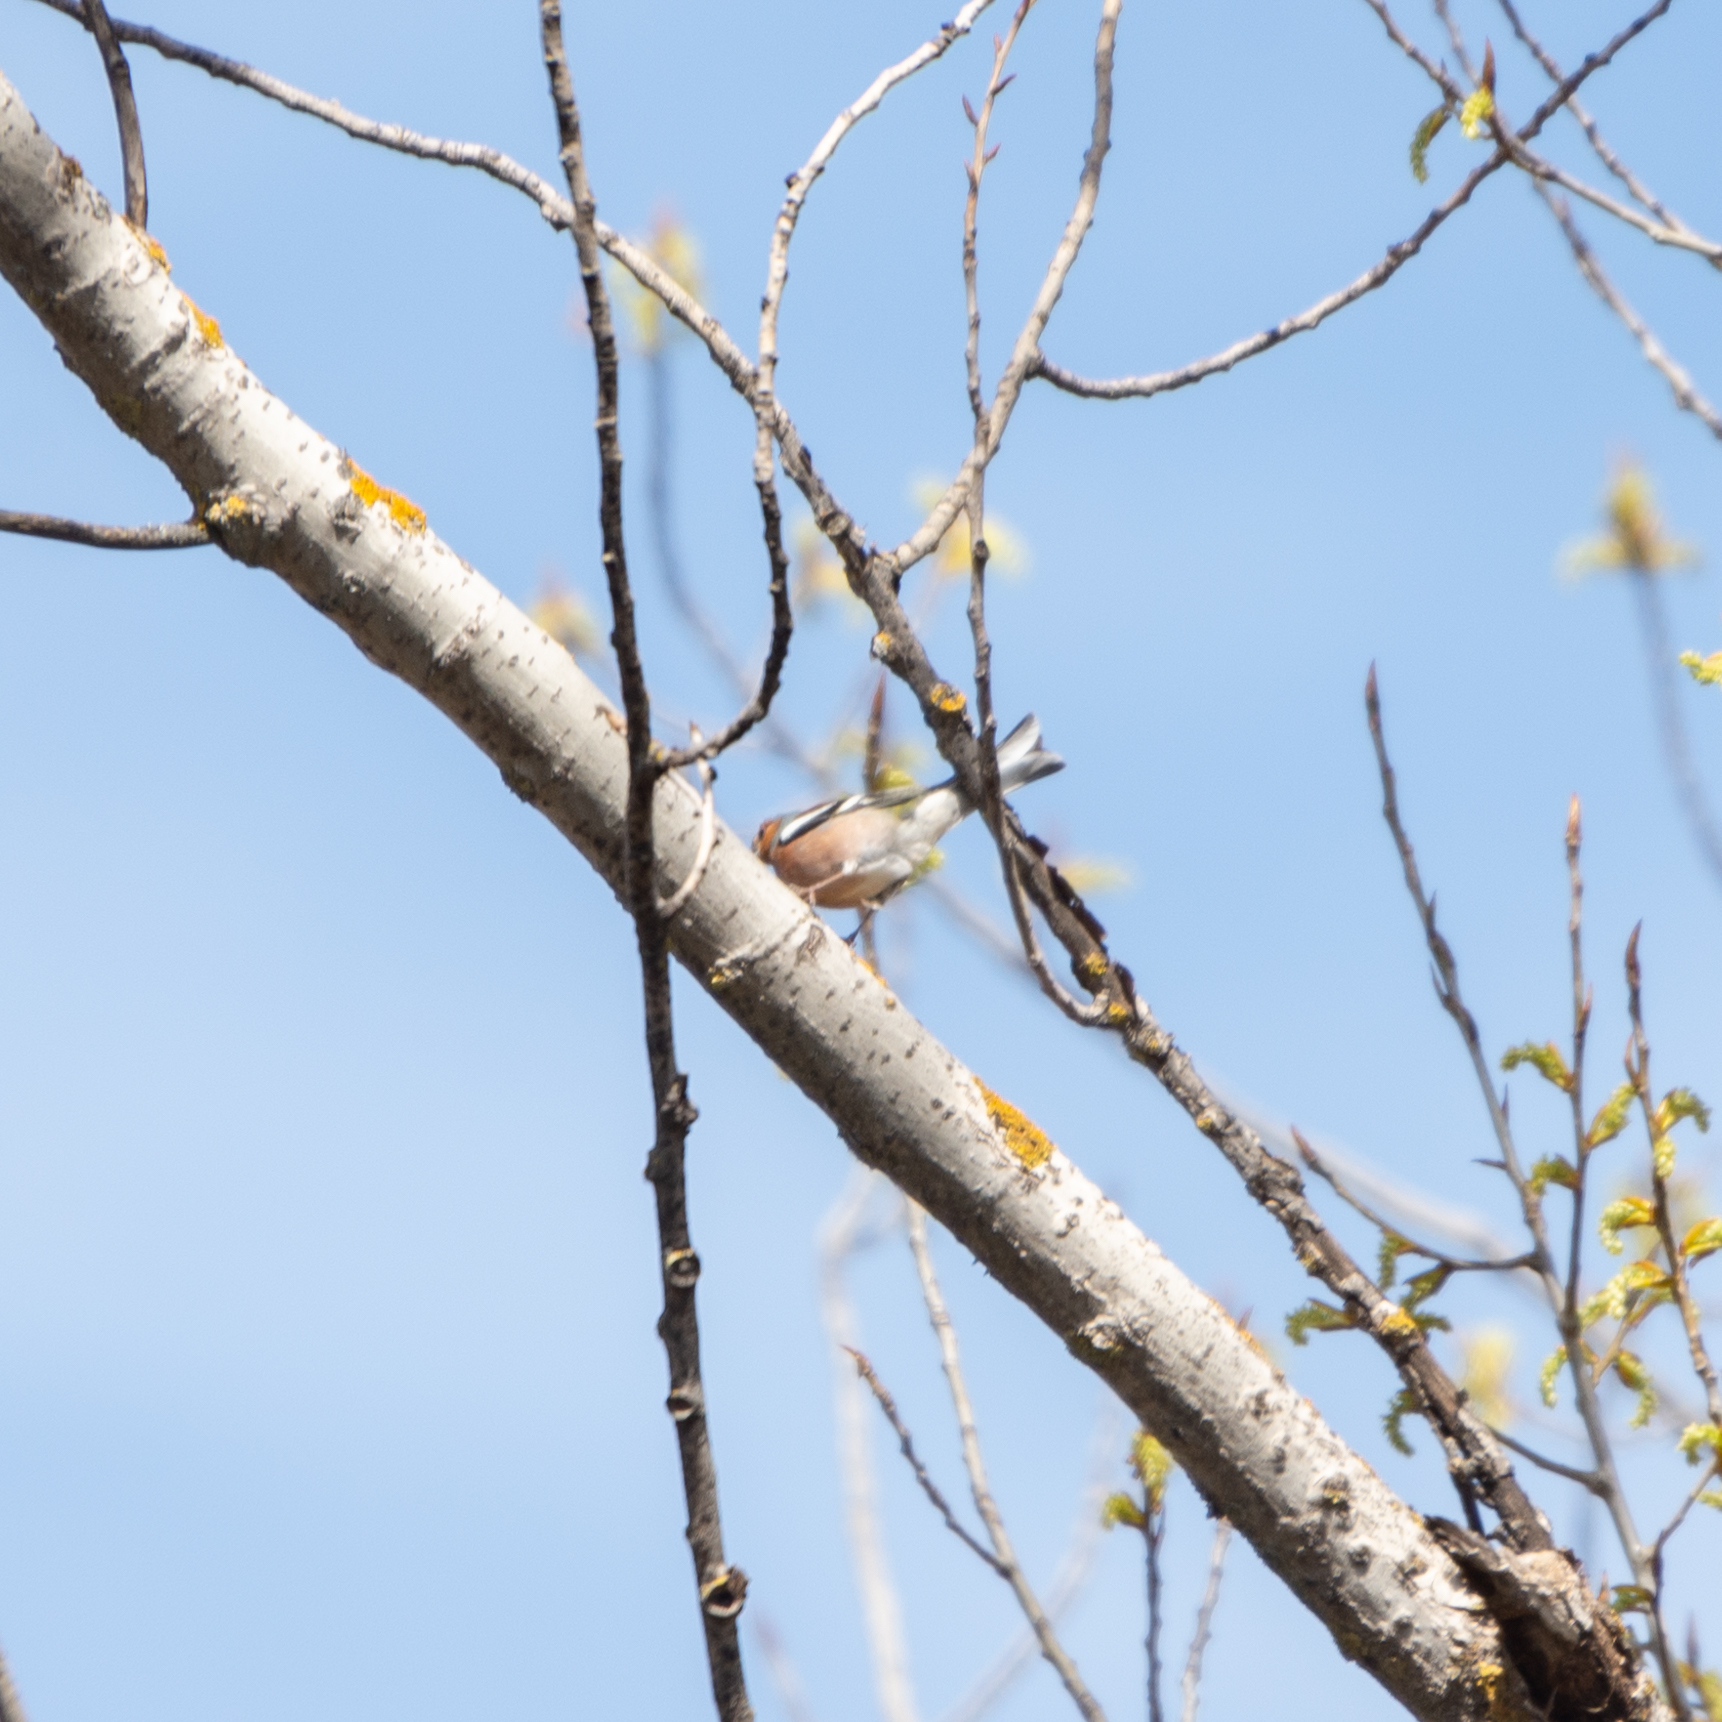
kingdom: Animalia
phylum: Chordata
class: Aves
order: Passeriformes
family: Fringillidae
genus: Fringilla
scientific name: Fringilla coelebs
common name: Common chaffinch
